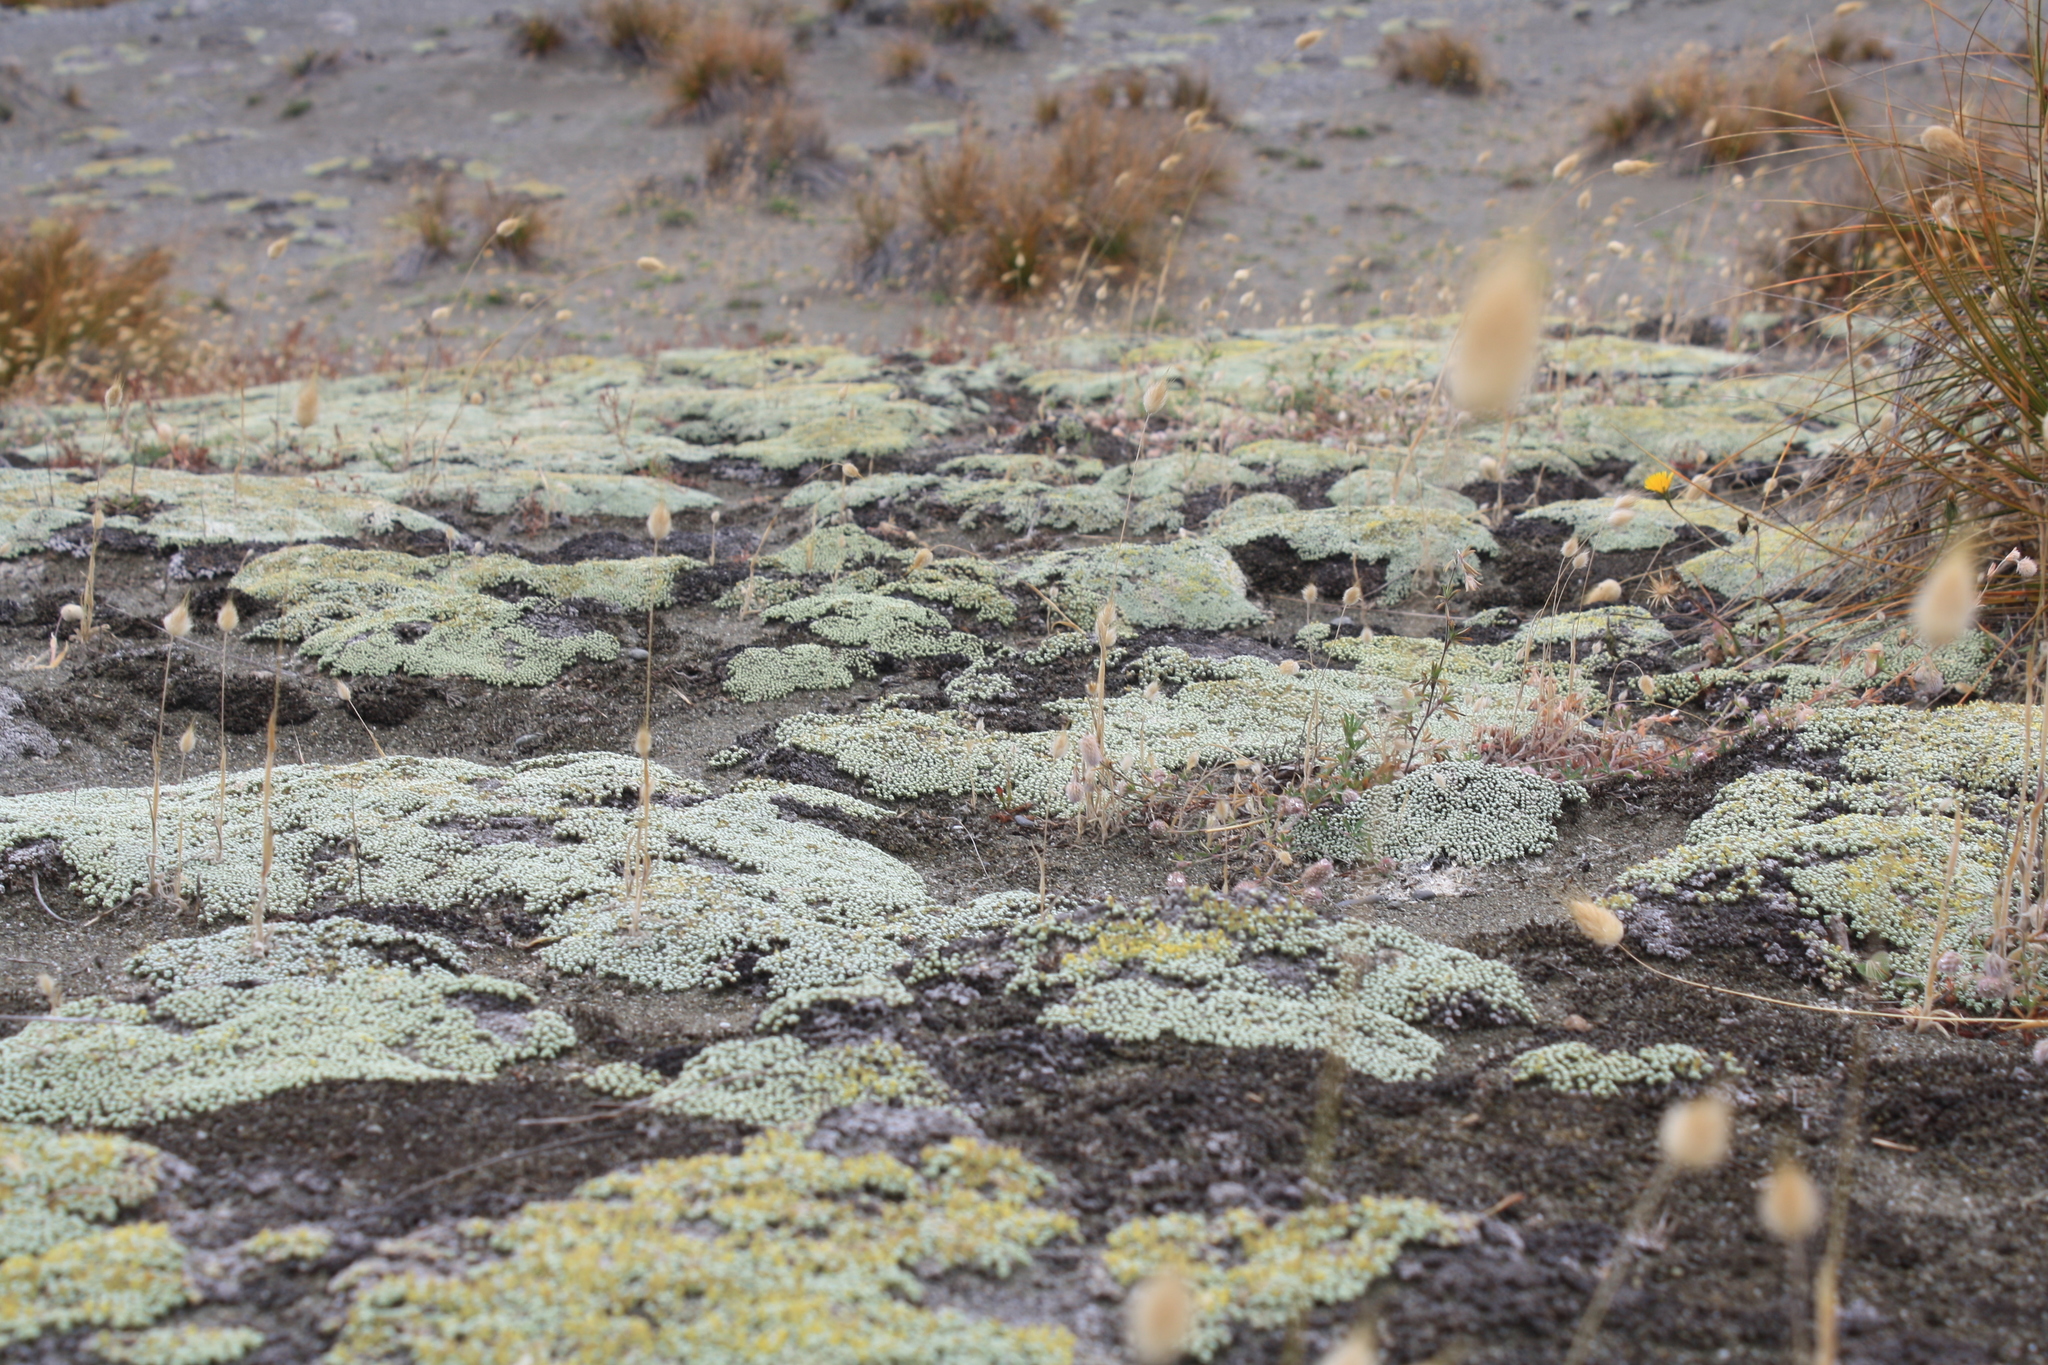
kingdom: Plantae
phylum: Tracheophyta
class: Magnoliopsida
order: Asterales
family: Asteraceae
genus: Raoulia
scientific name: Raoulia australis
